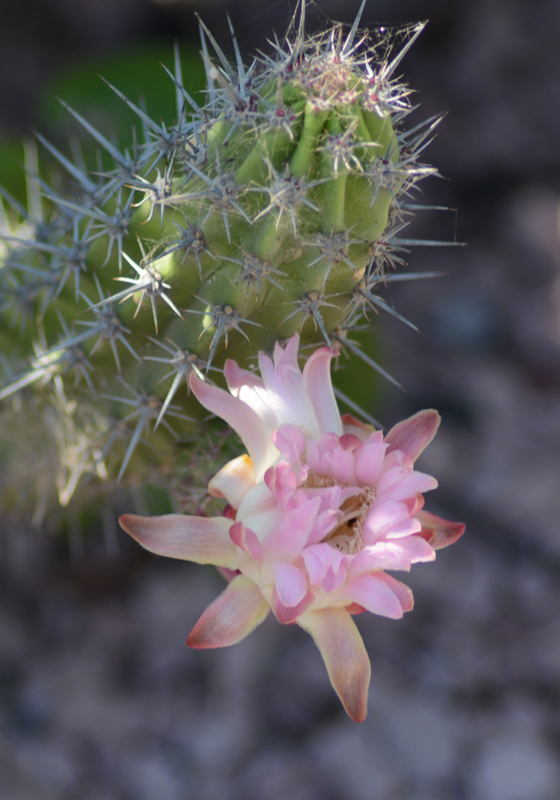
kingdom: Plantae
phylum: Tracheophyta
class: Magnoliopsida
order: Caryophyllales
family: Cactaceae
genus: Stenocereus
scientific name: Stenocereus gummosus
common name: Dagger cactus
